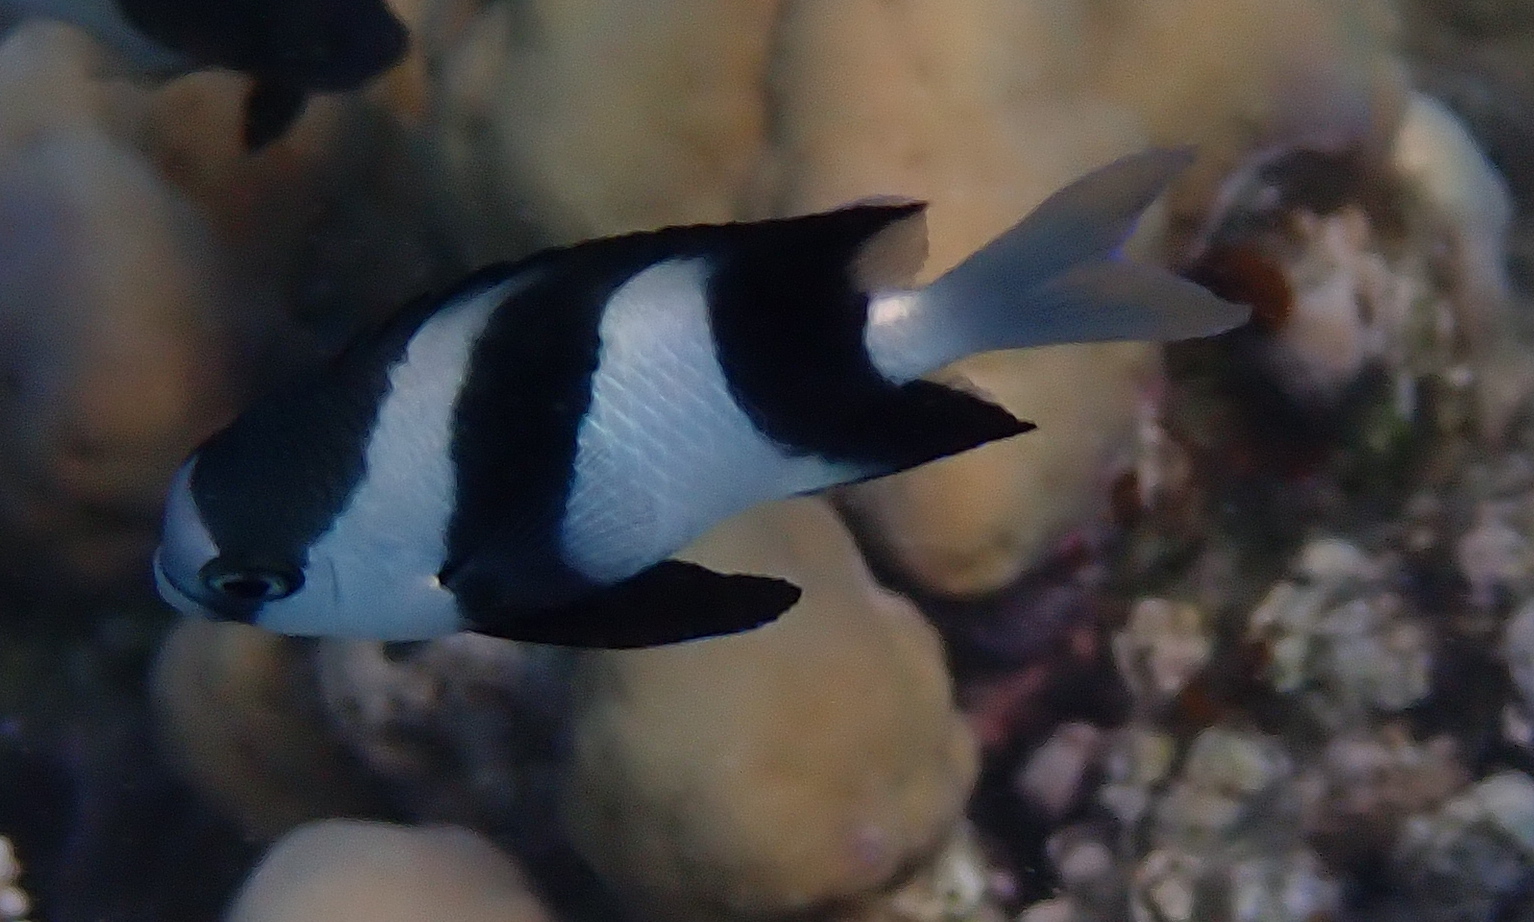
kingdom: Animalia
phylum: Chordata
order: Perciformes
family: Pomacentridae
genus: Dascyllus
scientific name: Dascyllus abudafur
